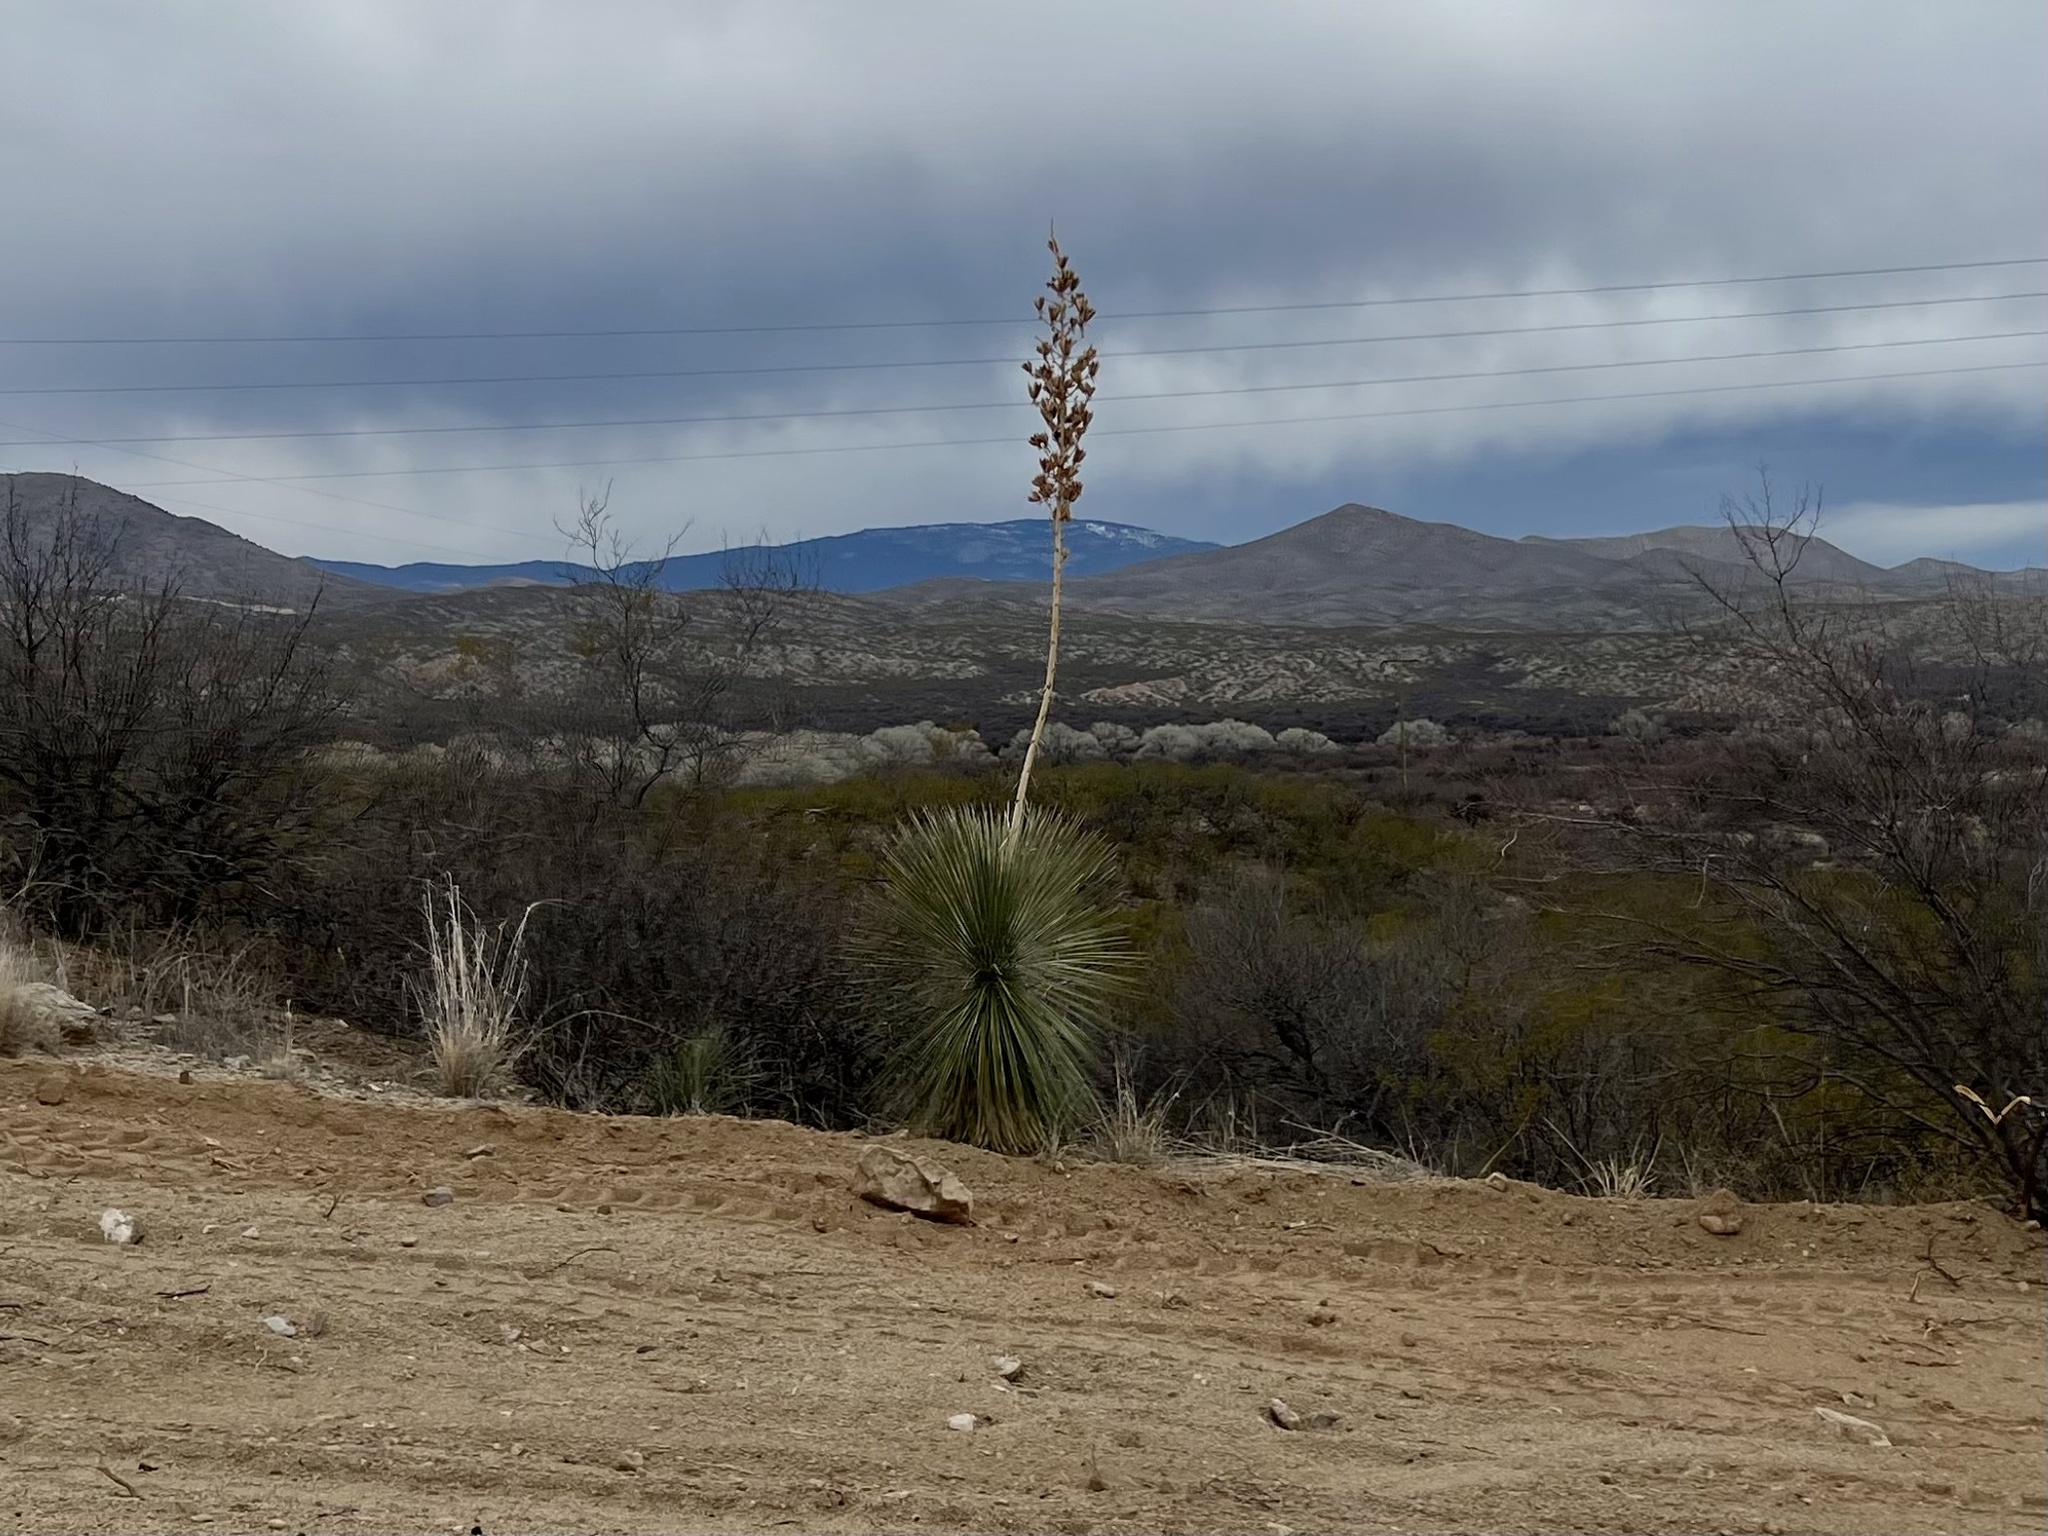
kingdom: Plantae
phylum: Tracheophyta
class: Liliopsida
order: Asparagales
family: Asparagaceae
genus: Yucca
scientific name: Yucca elata
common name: Palmella
